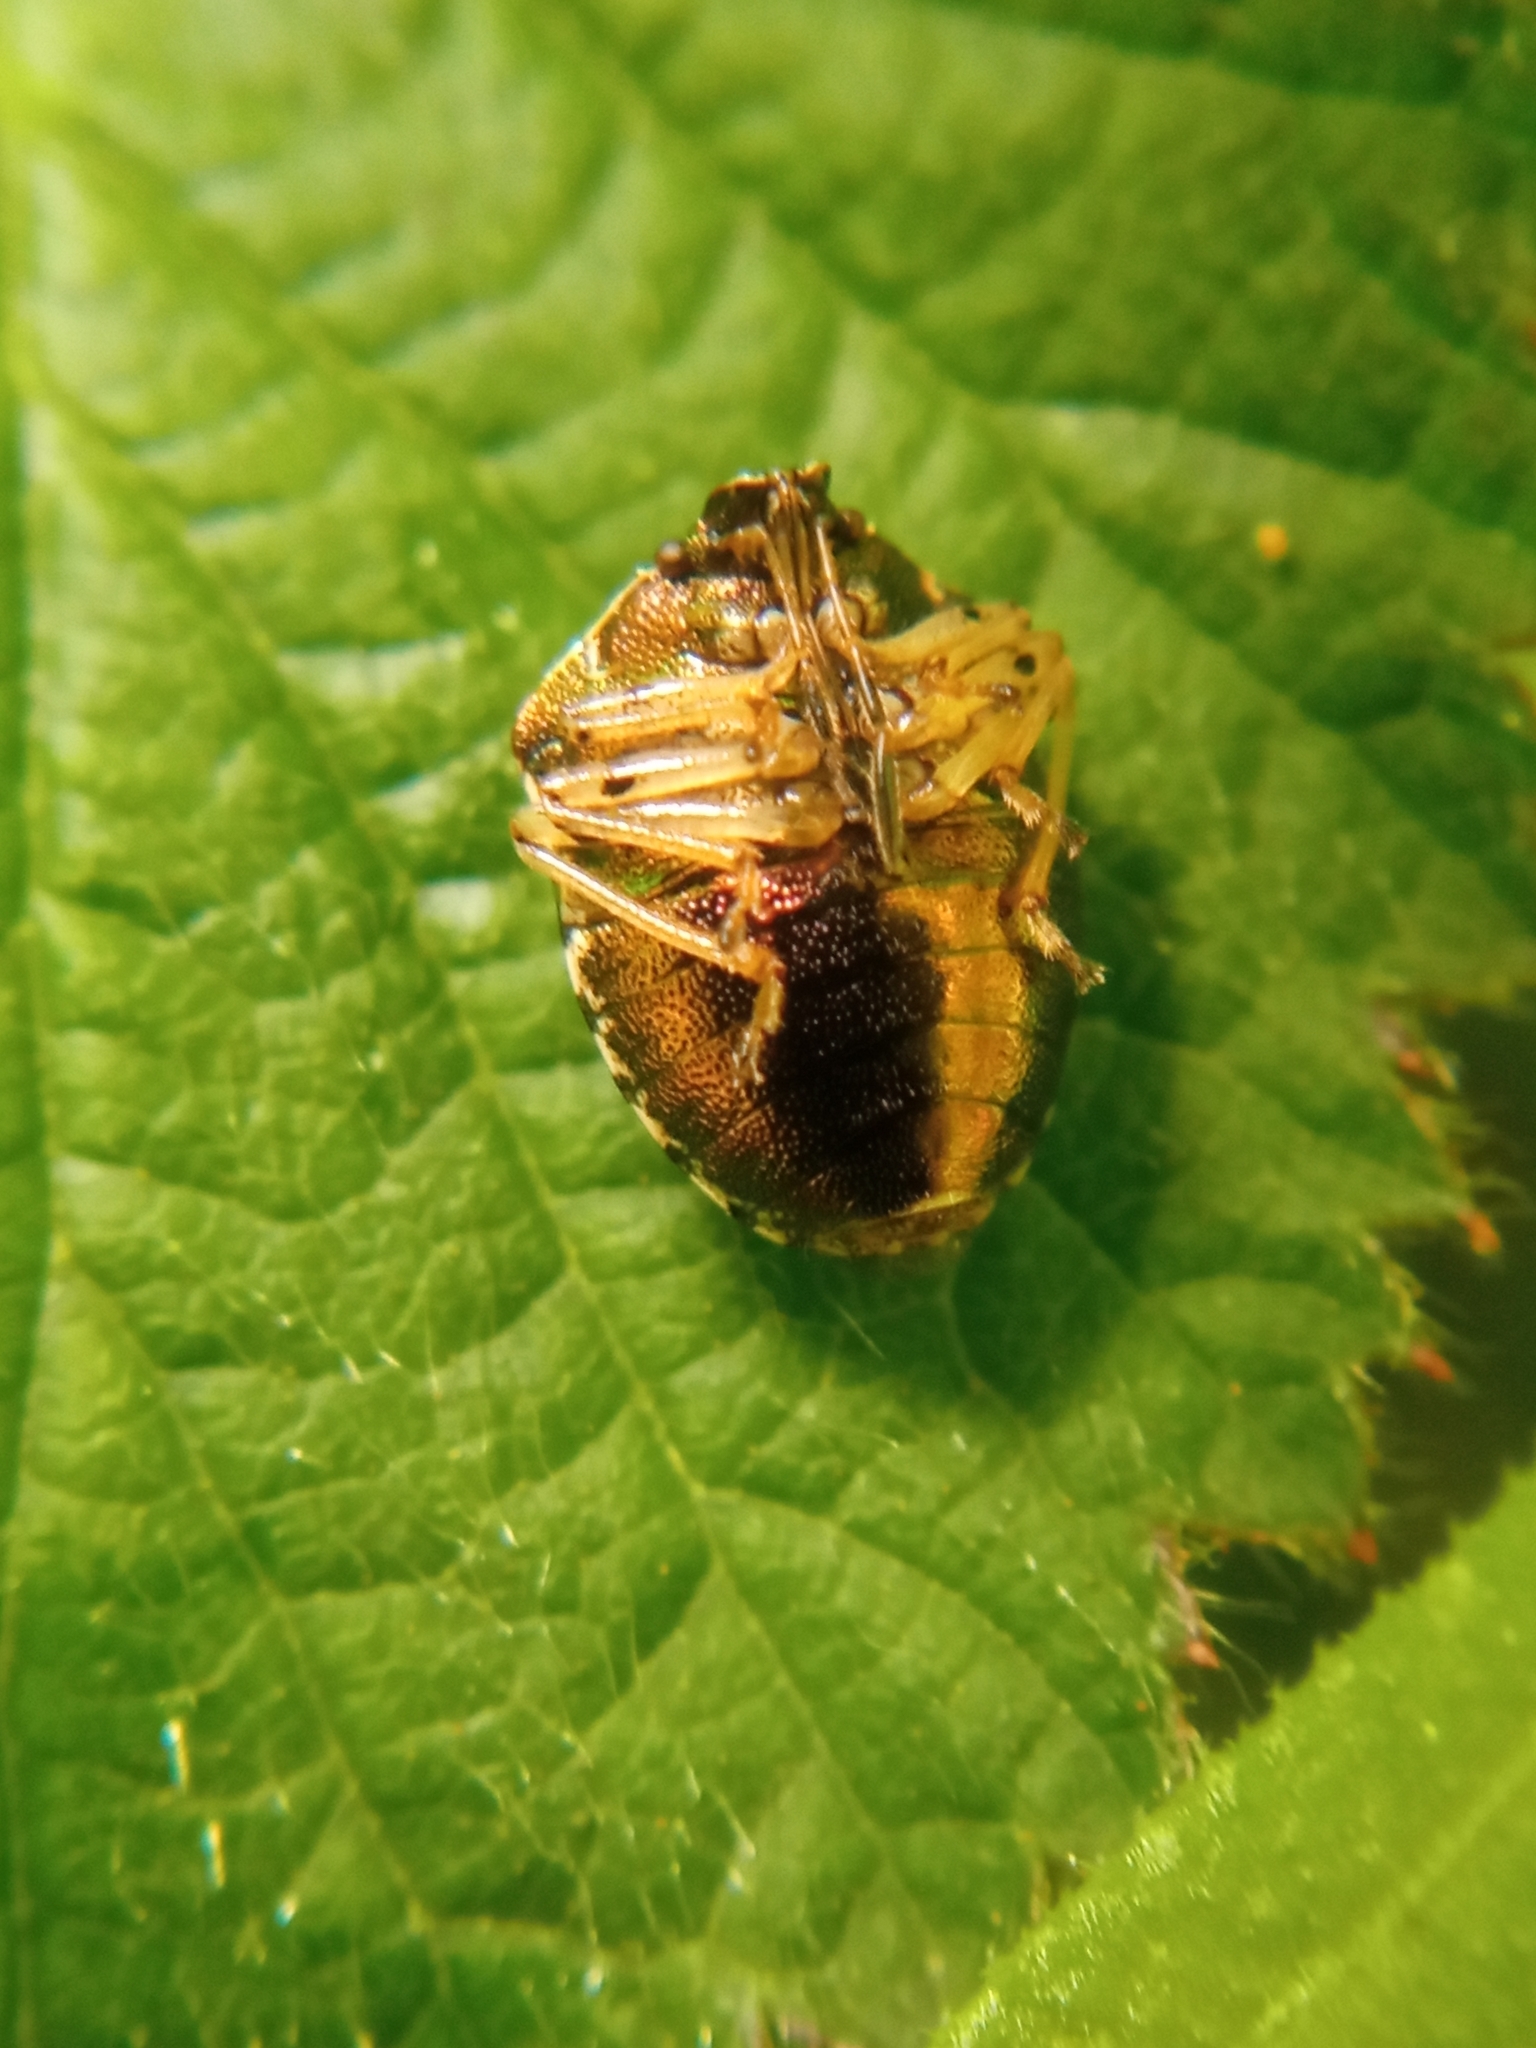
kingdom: Animalia
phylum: Arthropoda
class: Insecta
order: Hemiptera
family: Pentatomidae
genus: Eysarcoris
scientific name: Eysarcoris venustissimus
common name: Woundwort shieldbug
